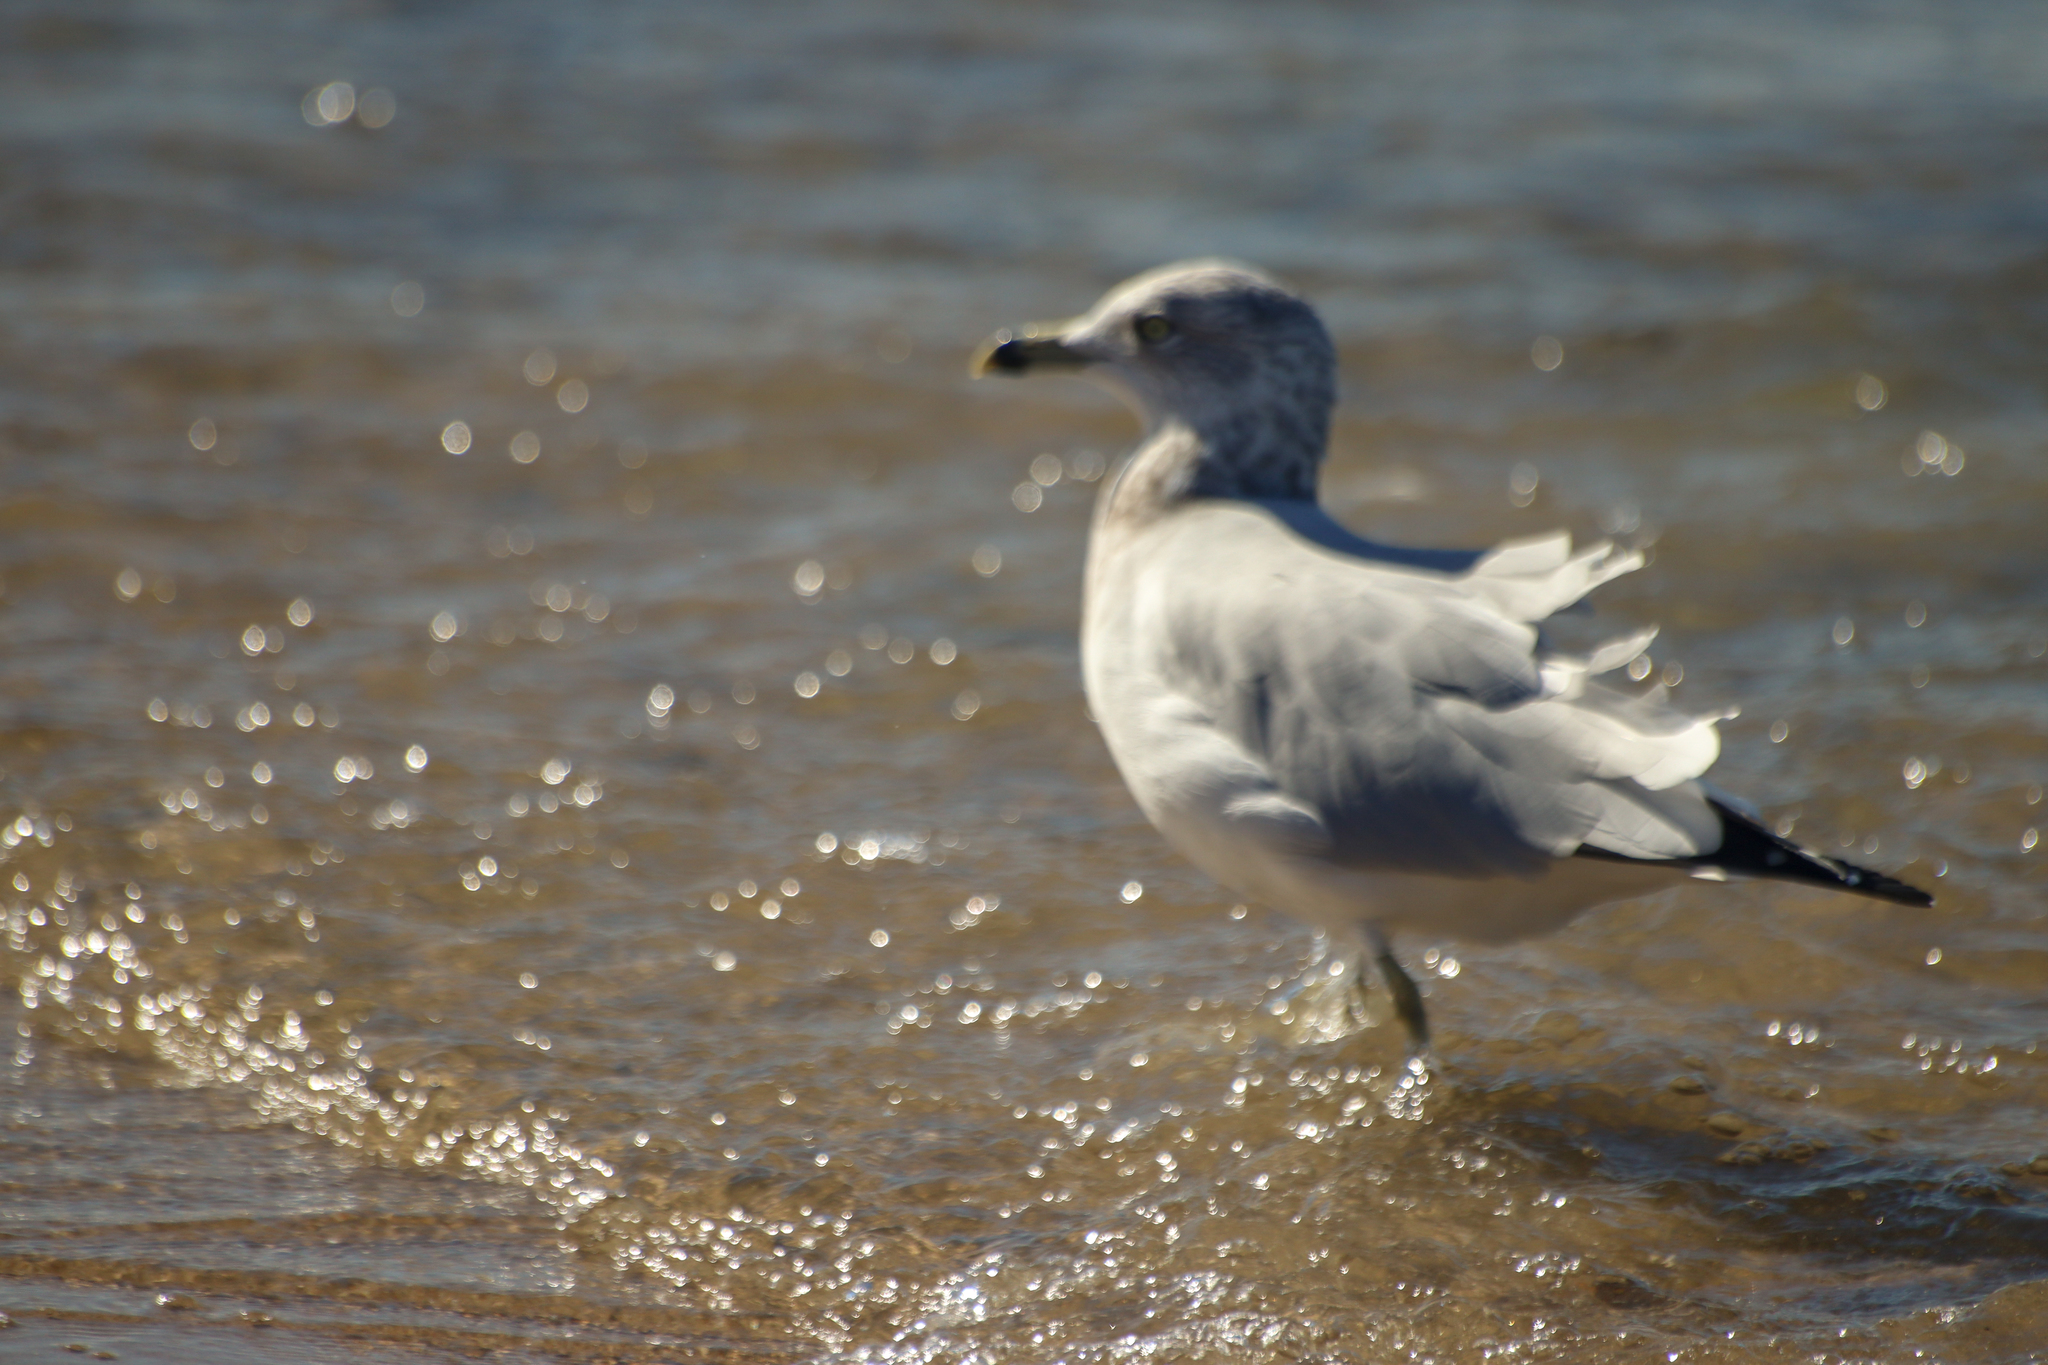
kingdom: Animalia
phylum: Chordata
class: Aves
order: Charadriiformes
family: Laridae
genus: Larus
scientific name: Larus delawarensis
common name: Ring-billed gull
